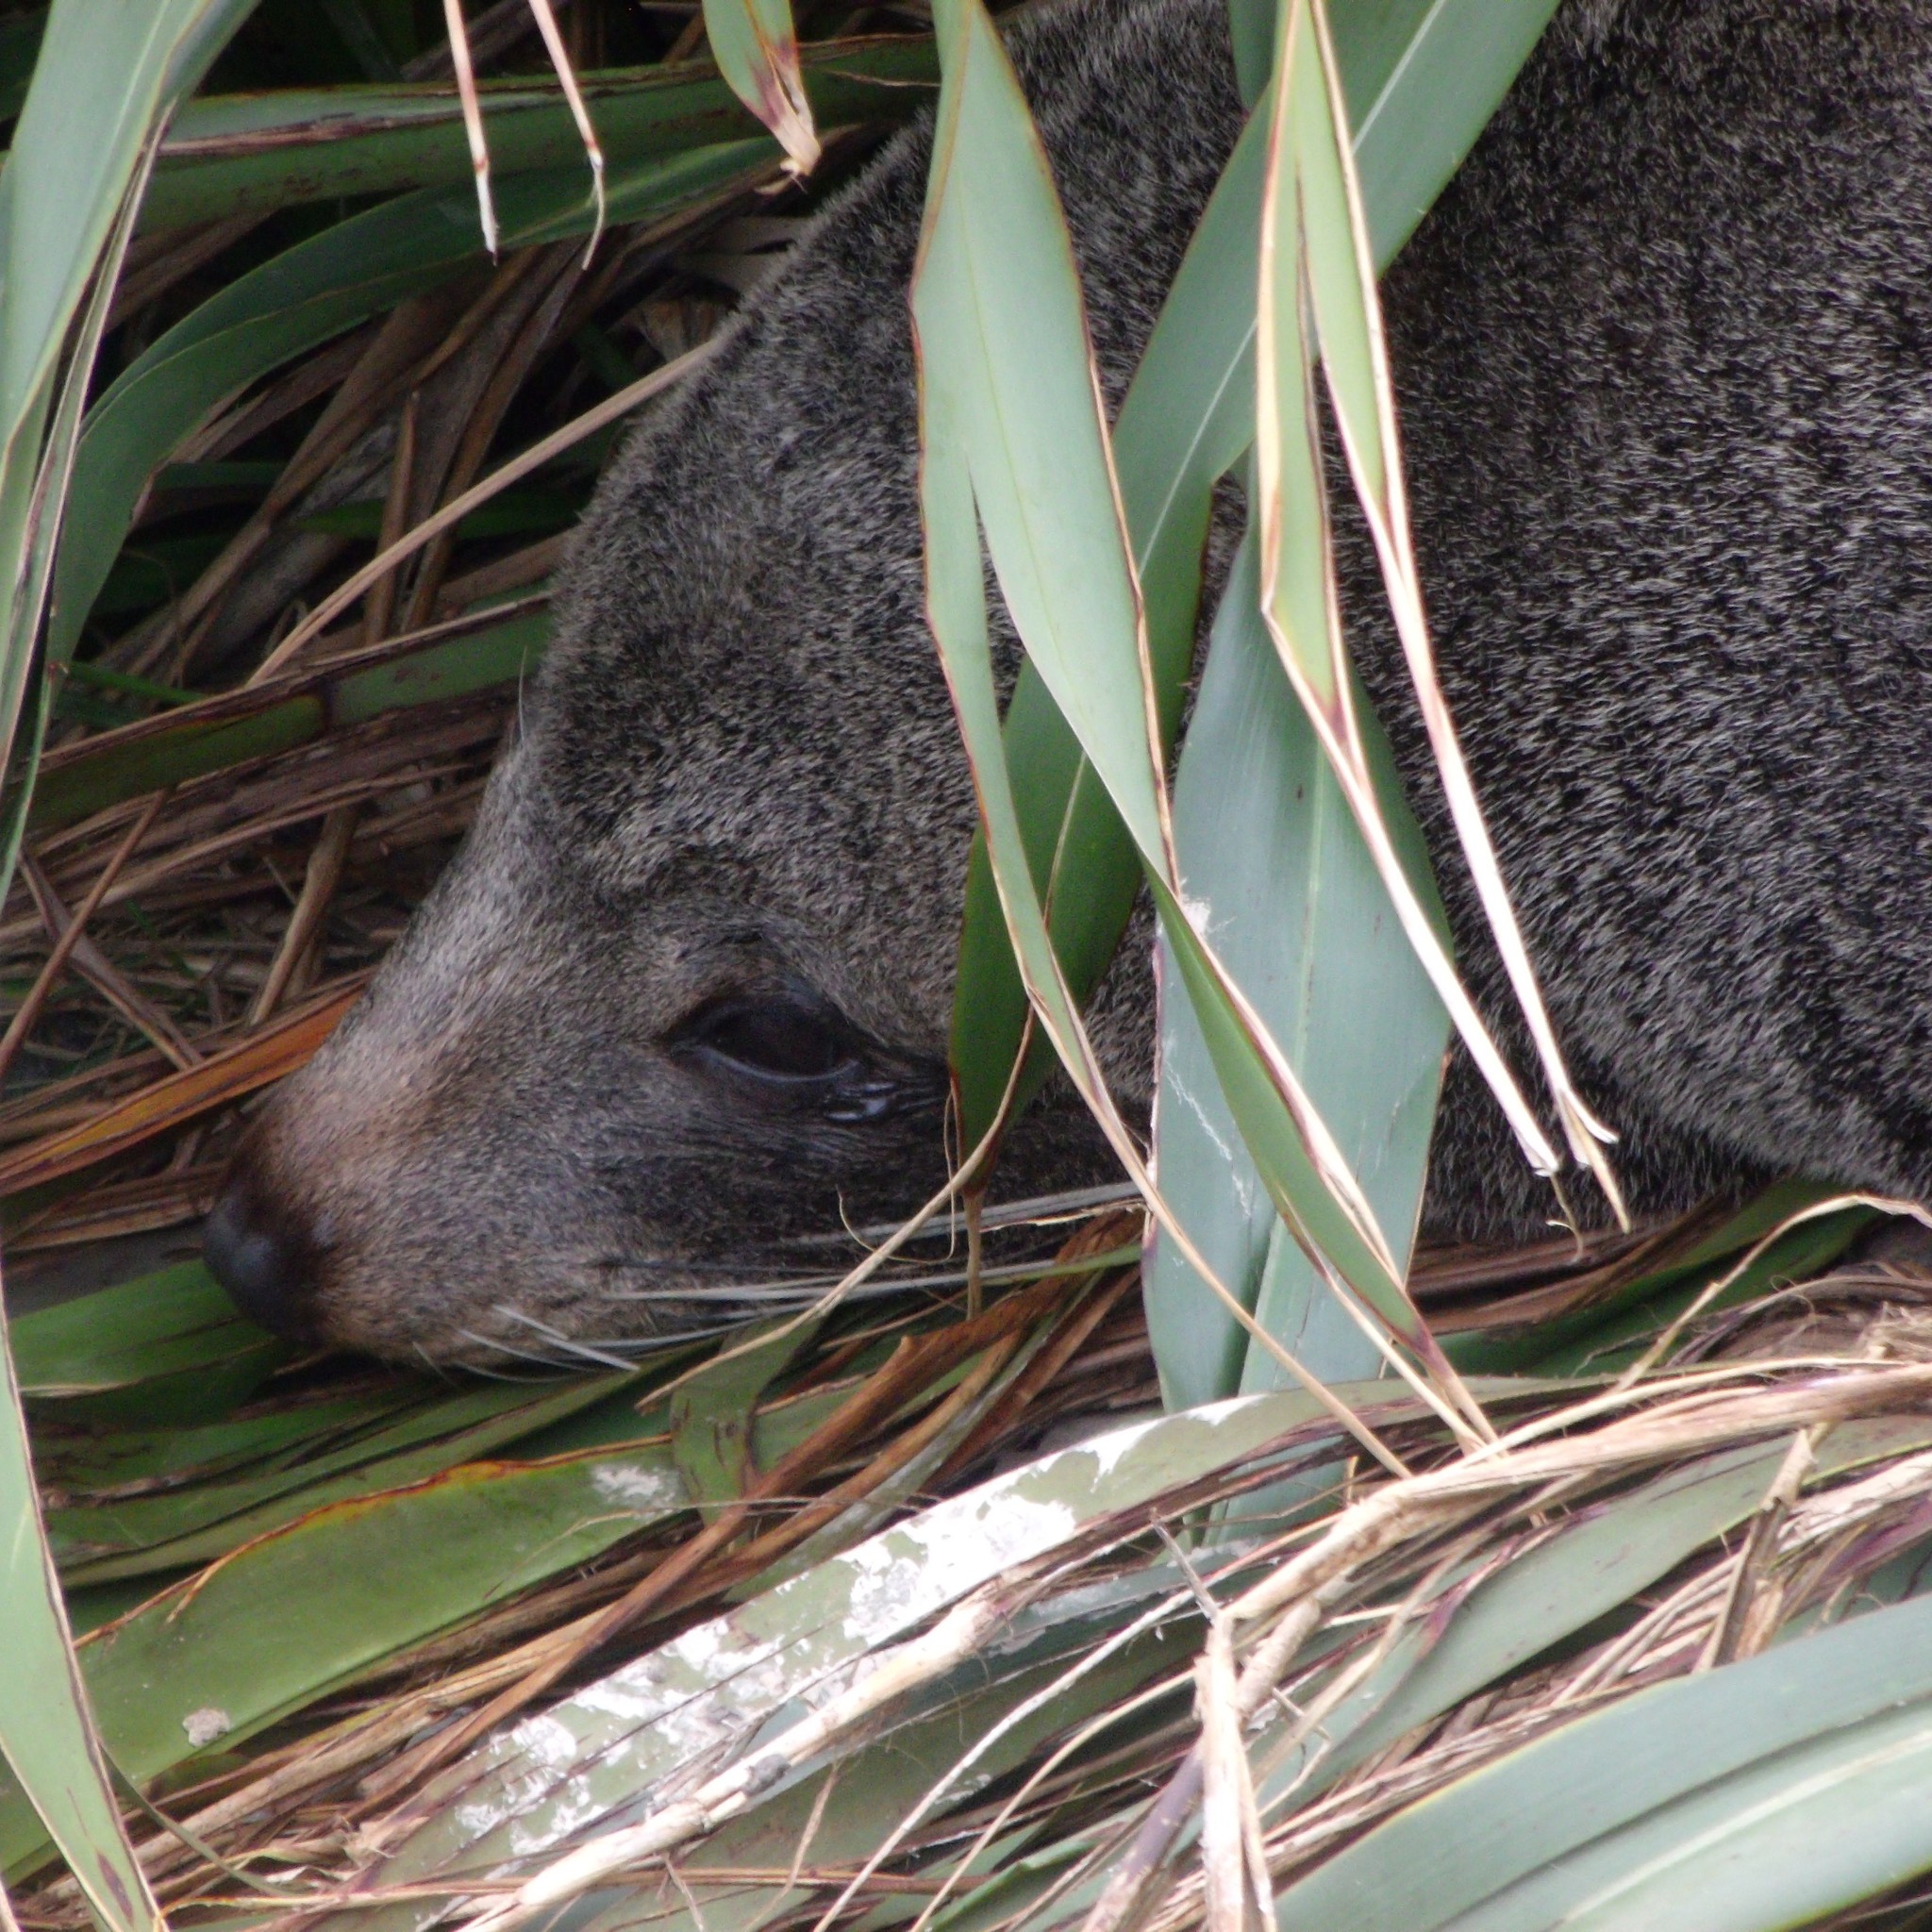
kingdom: Animalia
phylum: Chordata
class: Mammalia
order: Carnivora
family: Otariidae
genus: Arctocephalus
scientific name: Arctocephalus forsteri
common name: New zealand fur seal
